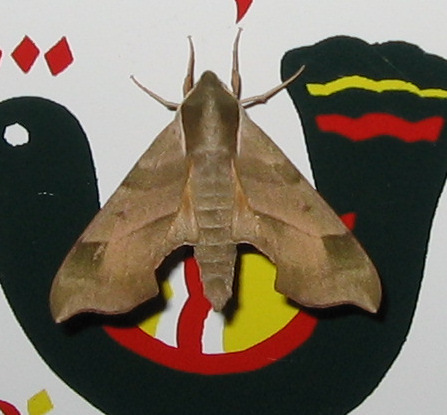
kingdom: Animalia
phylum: Arthropoda
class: Insecta
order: Lepidoptera
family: Sphingidae
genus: Darapsa
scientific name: Darapsa myron
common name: Hog sphinx
